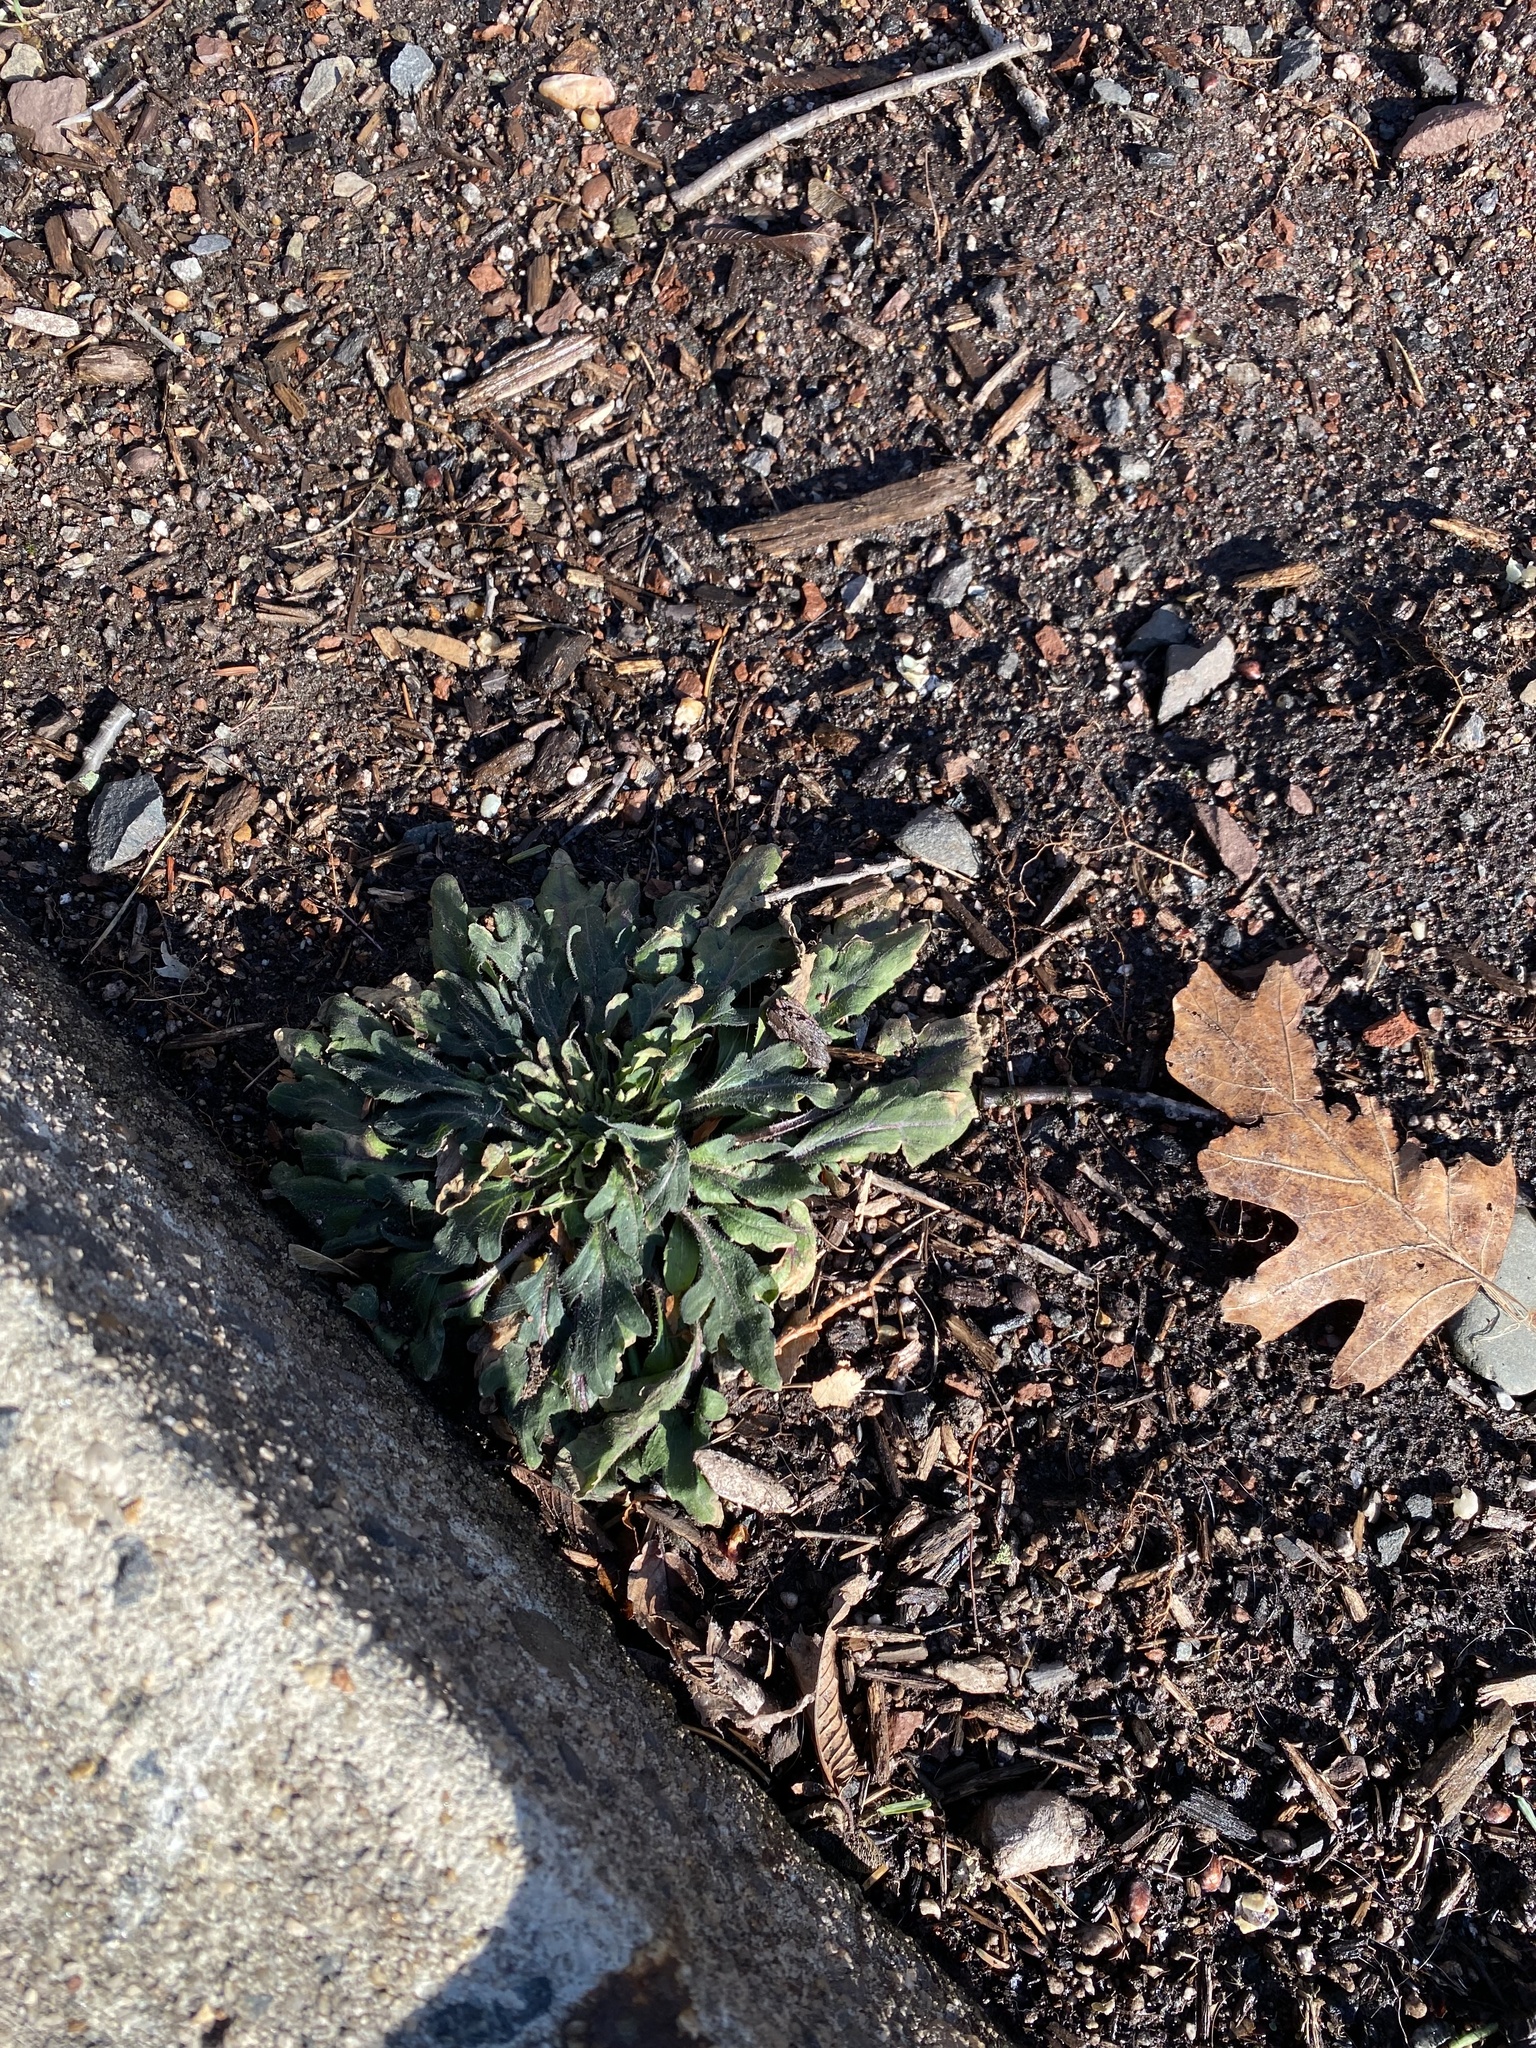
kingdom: Plantae
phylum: Tracheophyta
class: Magnoliopsida
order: Asterales
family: Asteraceae
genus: Erigeron
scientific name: Erigeron canadensis
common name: Canadian fleabane
